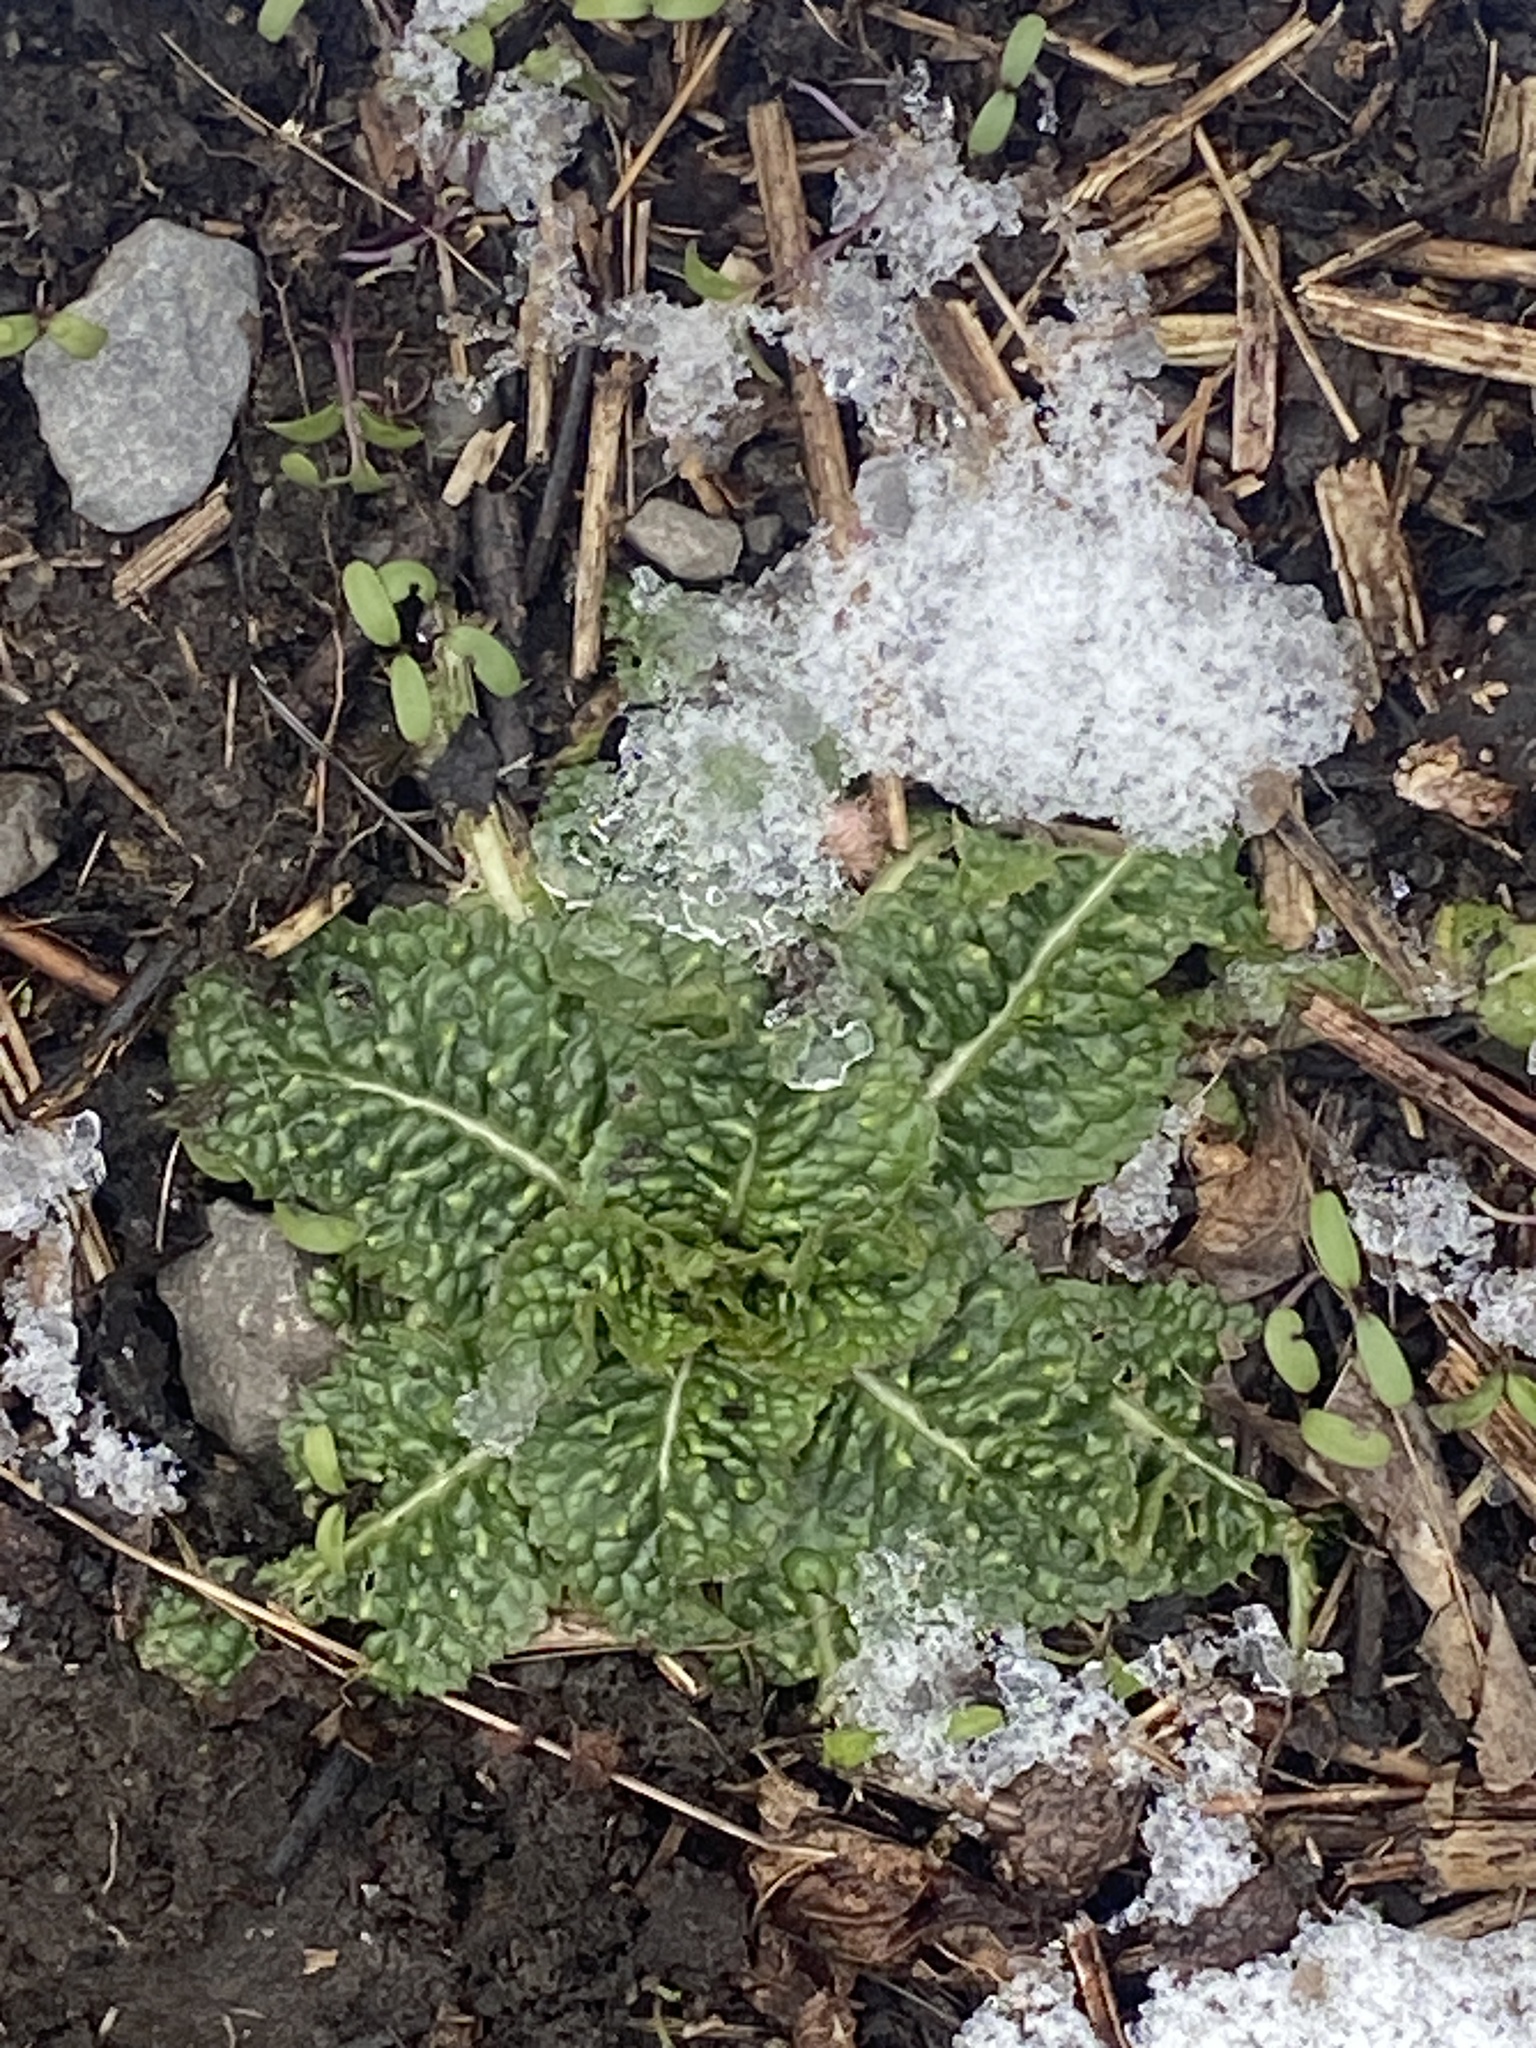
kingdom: Plantae
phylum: Tracheophyta
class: Magnoliopsida
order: Dipsacales
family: Caprifoliaceae
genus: Dipsacus
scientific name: Dipsacus fullonum
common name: Teasel
